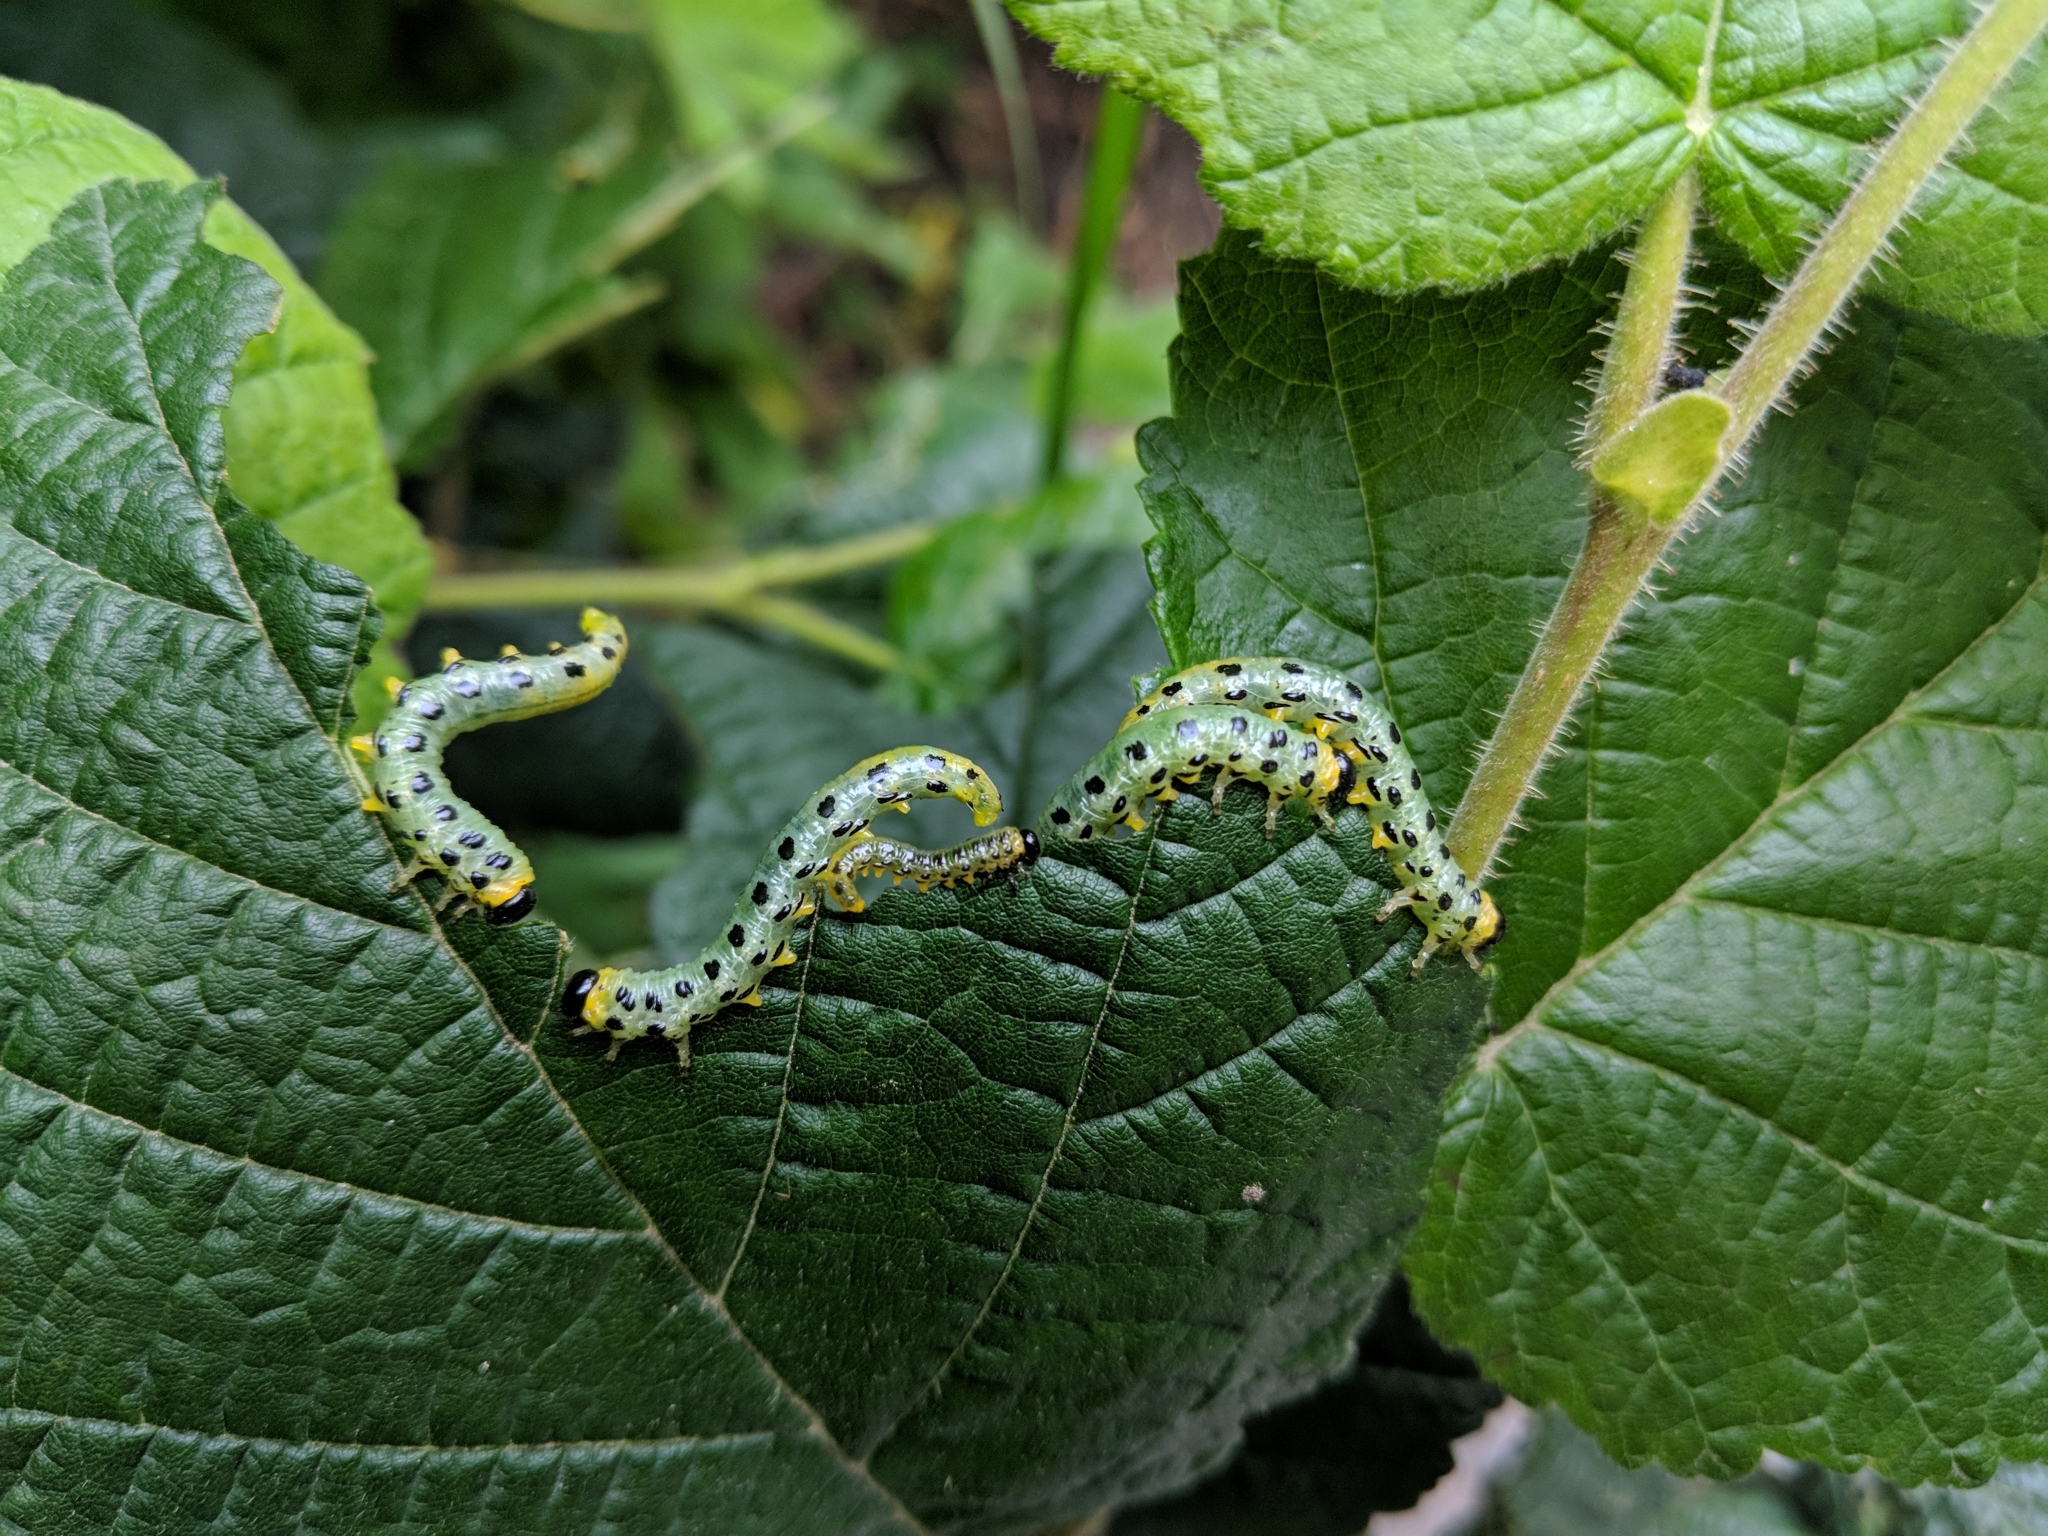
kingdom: Animalia
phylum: Arthropoda
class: Insecta
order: Hymenoptera
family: Tenthredinidae
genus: Craesus
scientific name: Craesus septentrionalis
